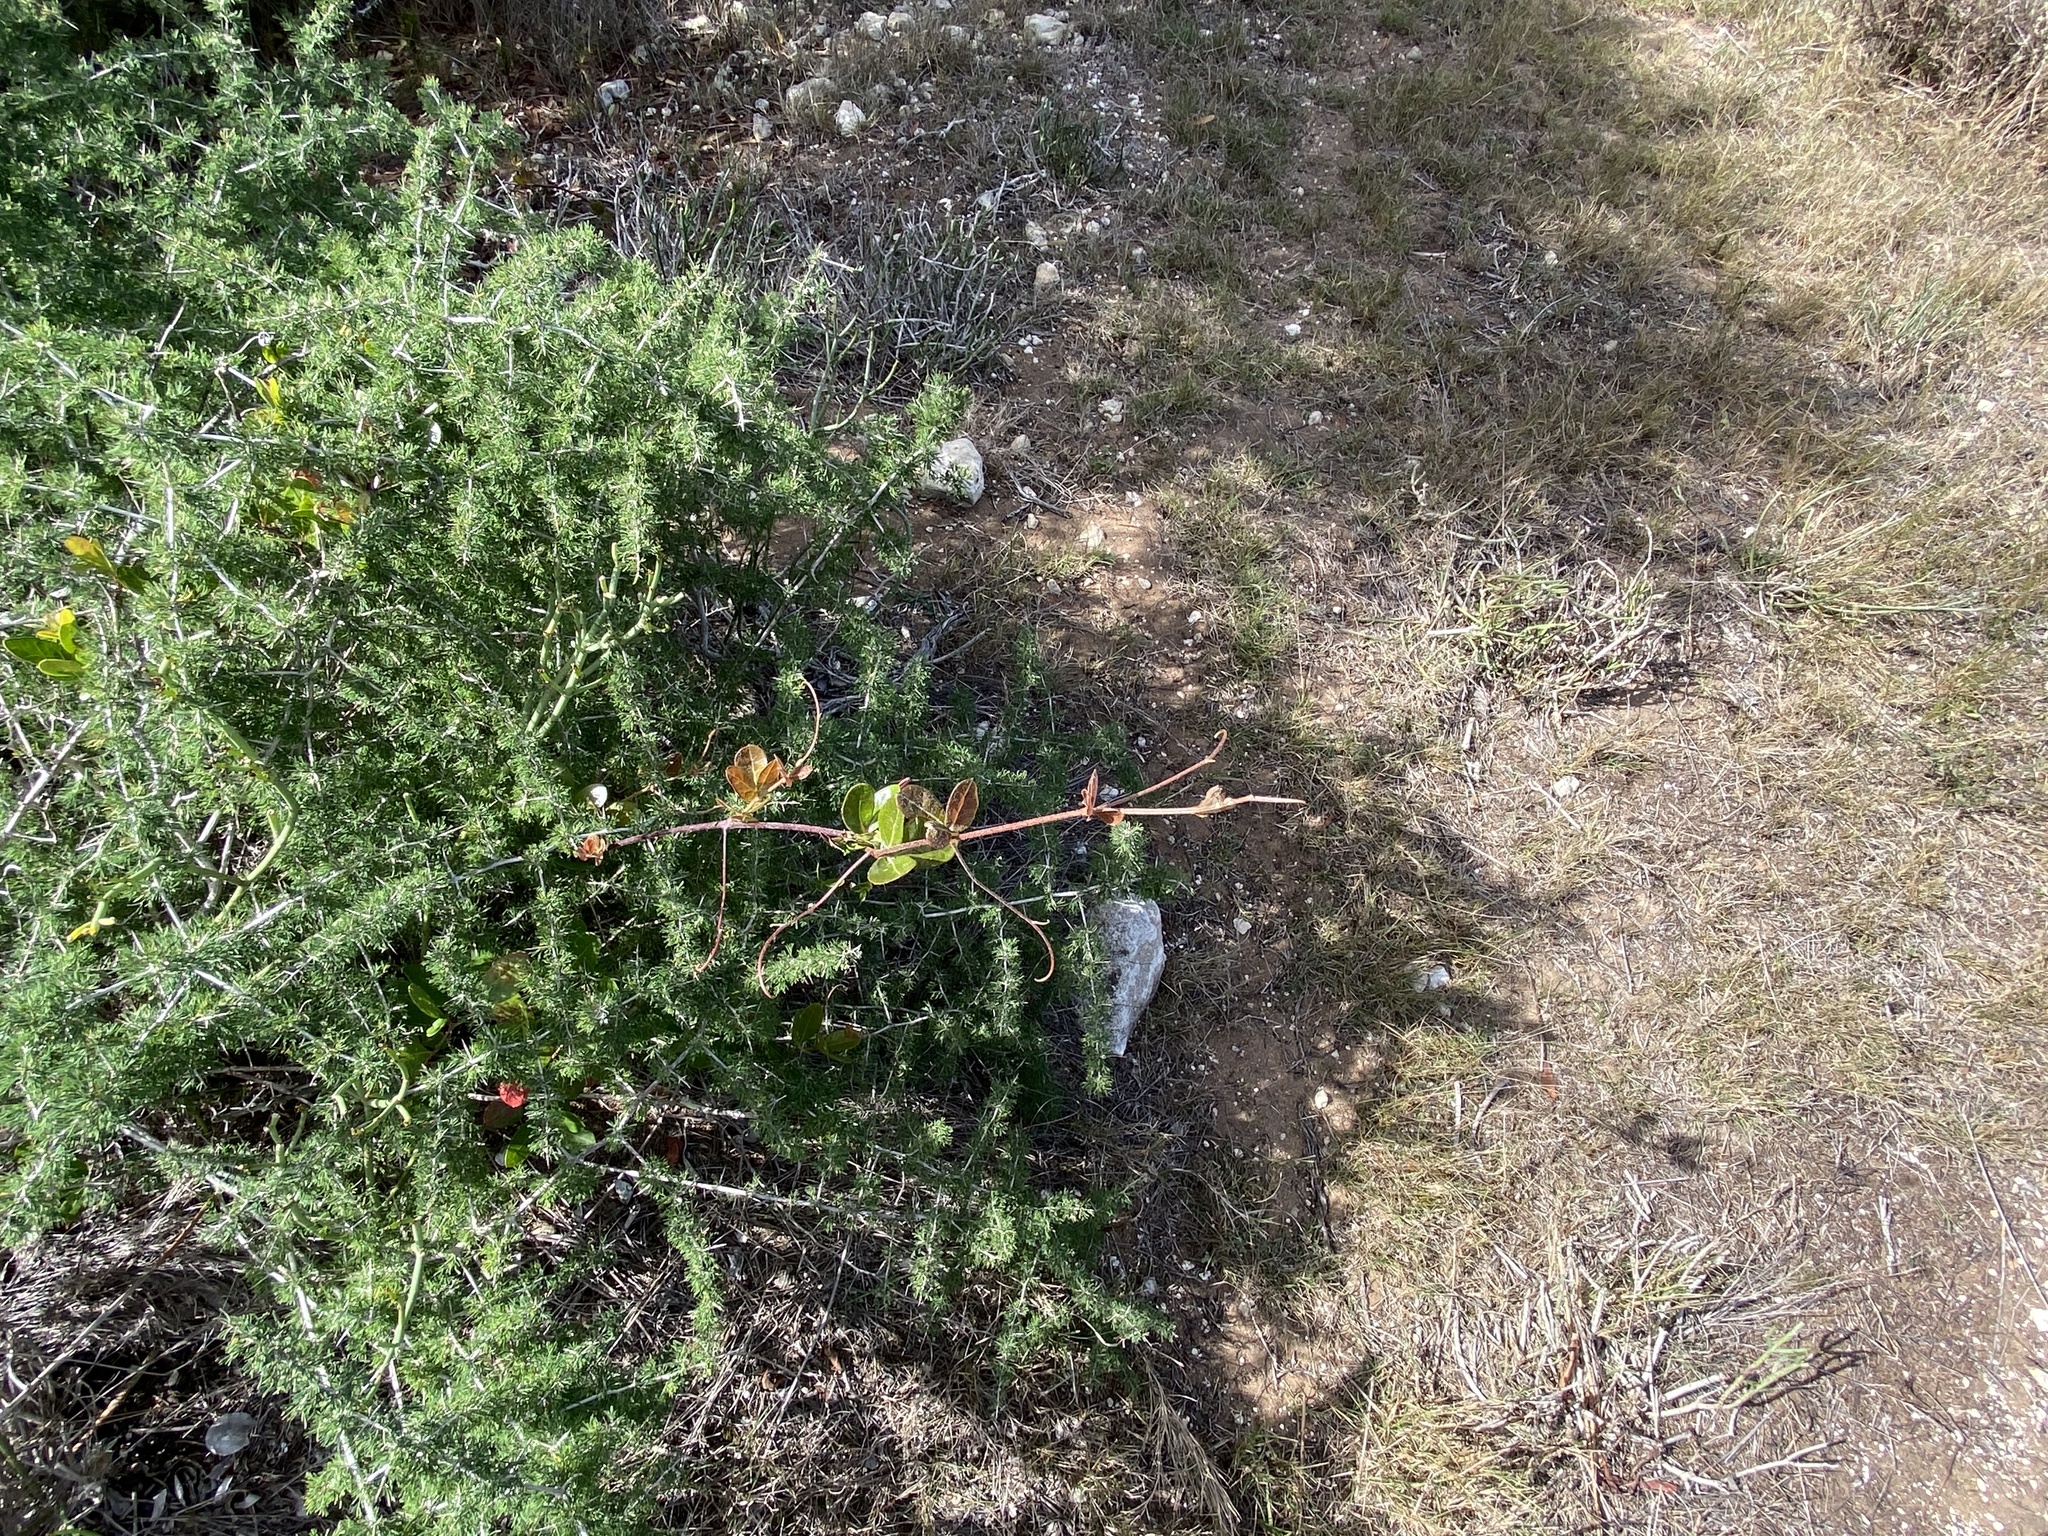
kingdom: Plantae
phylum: Tracheophyta
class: Magnoliopsida
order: Vitales
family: Vitaceae
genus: Rhoicissus
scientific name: Rhoicissus digitata
